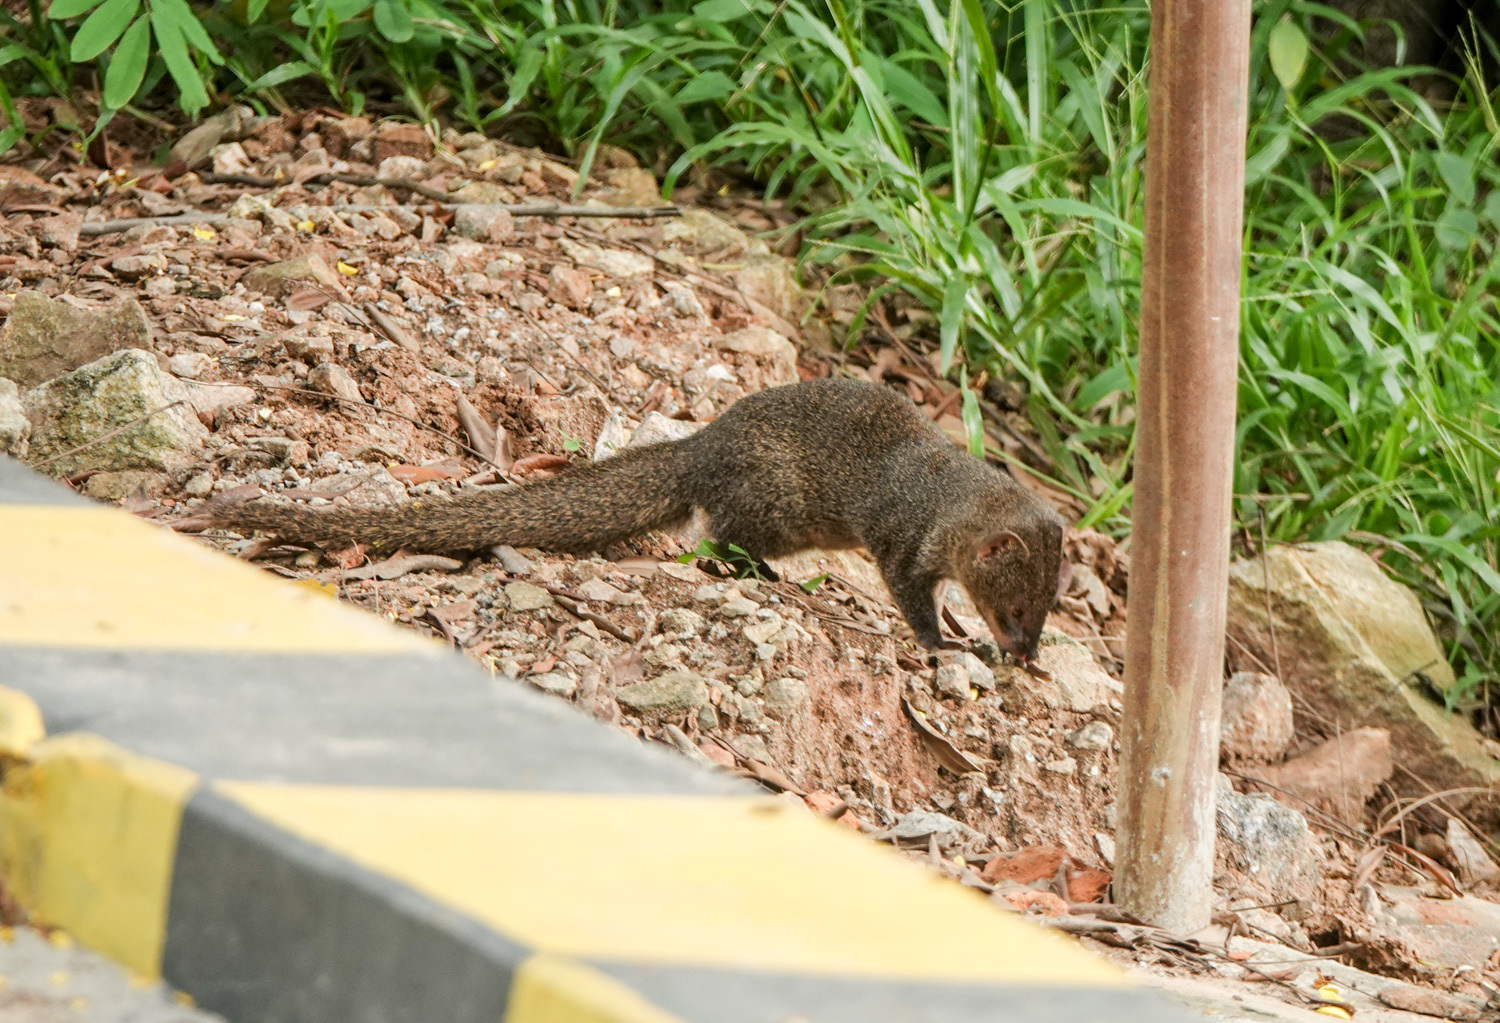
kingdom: Animalia
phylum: Chordata
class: Mammalia
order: Carnivora
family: Herpestidae
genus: Herpestes
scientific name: Herpestes javanicus
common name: Small asian mongoose
